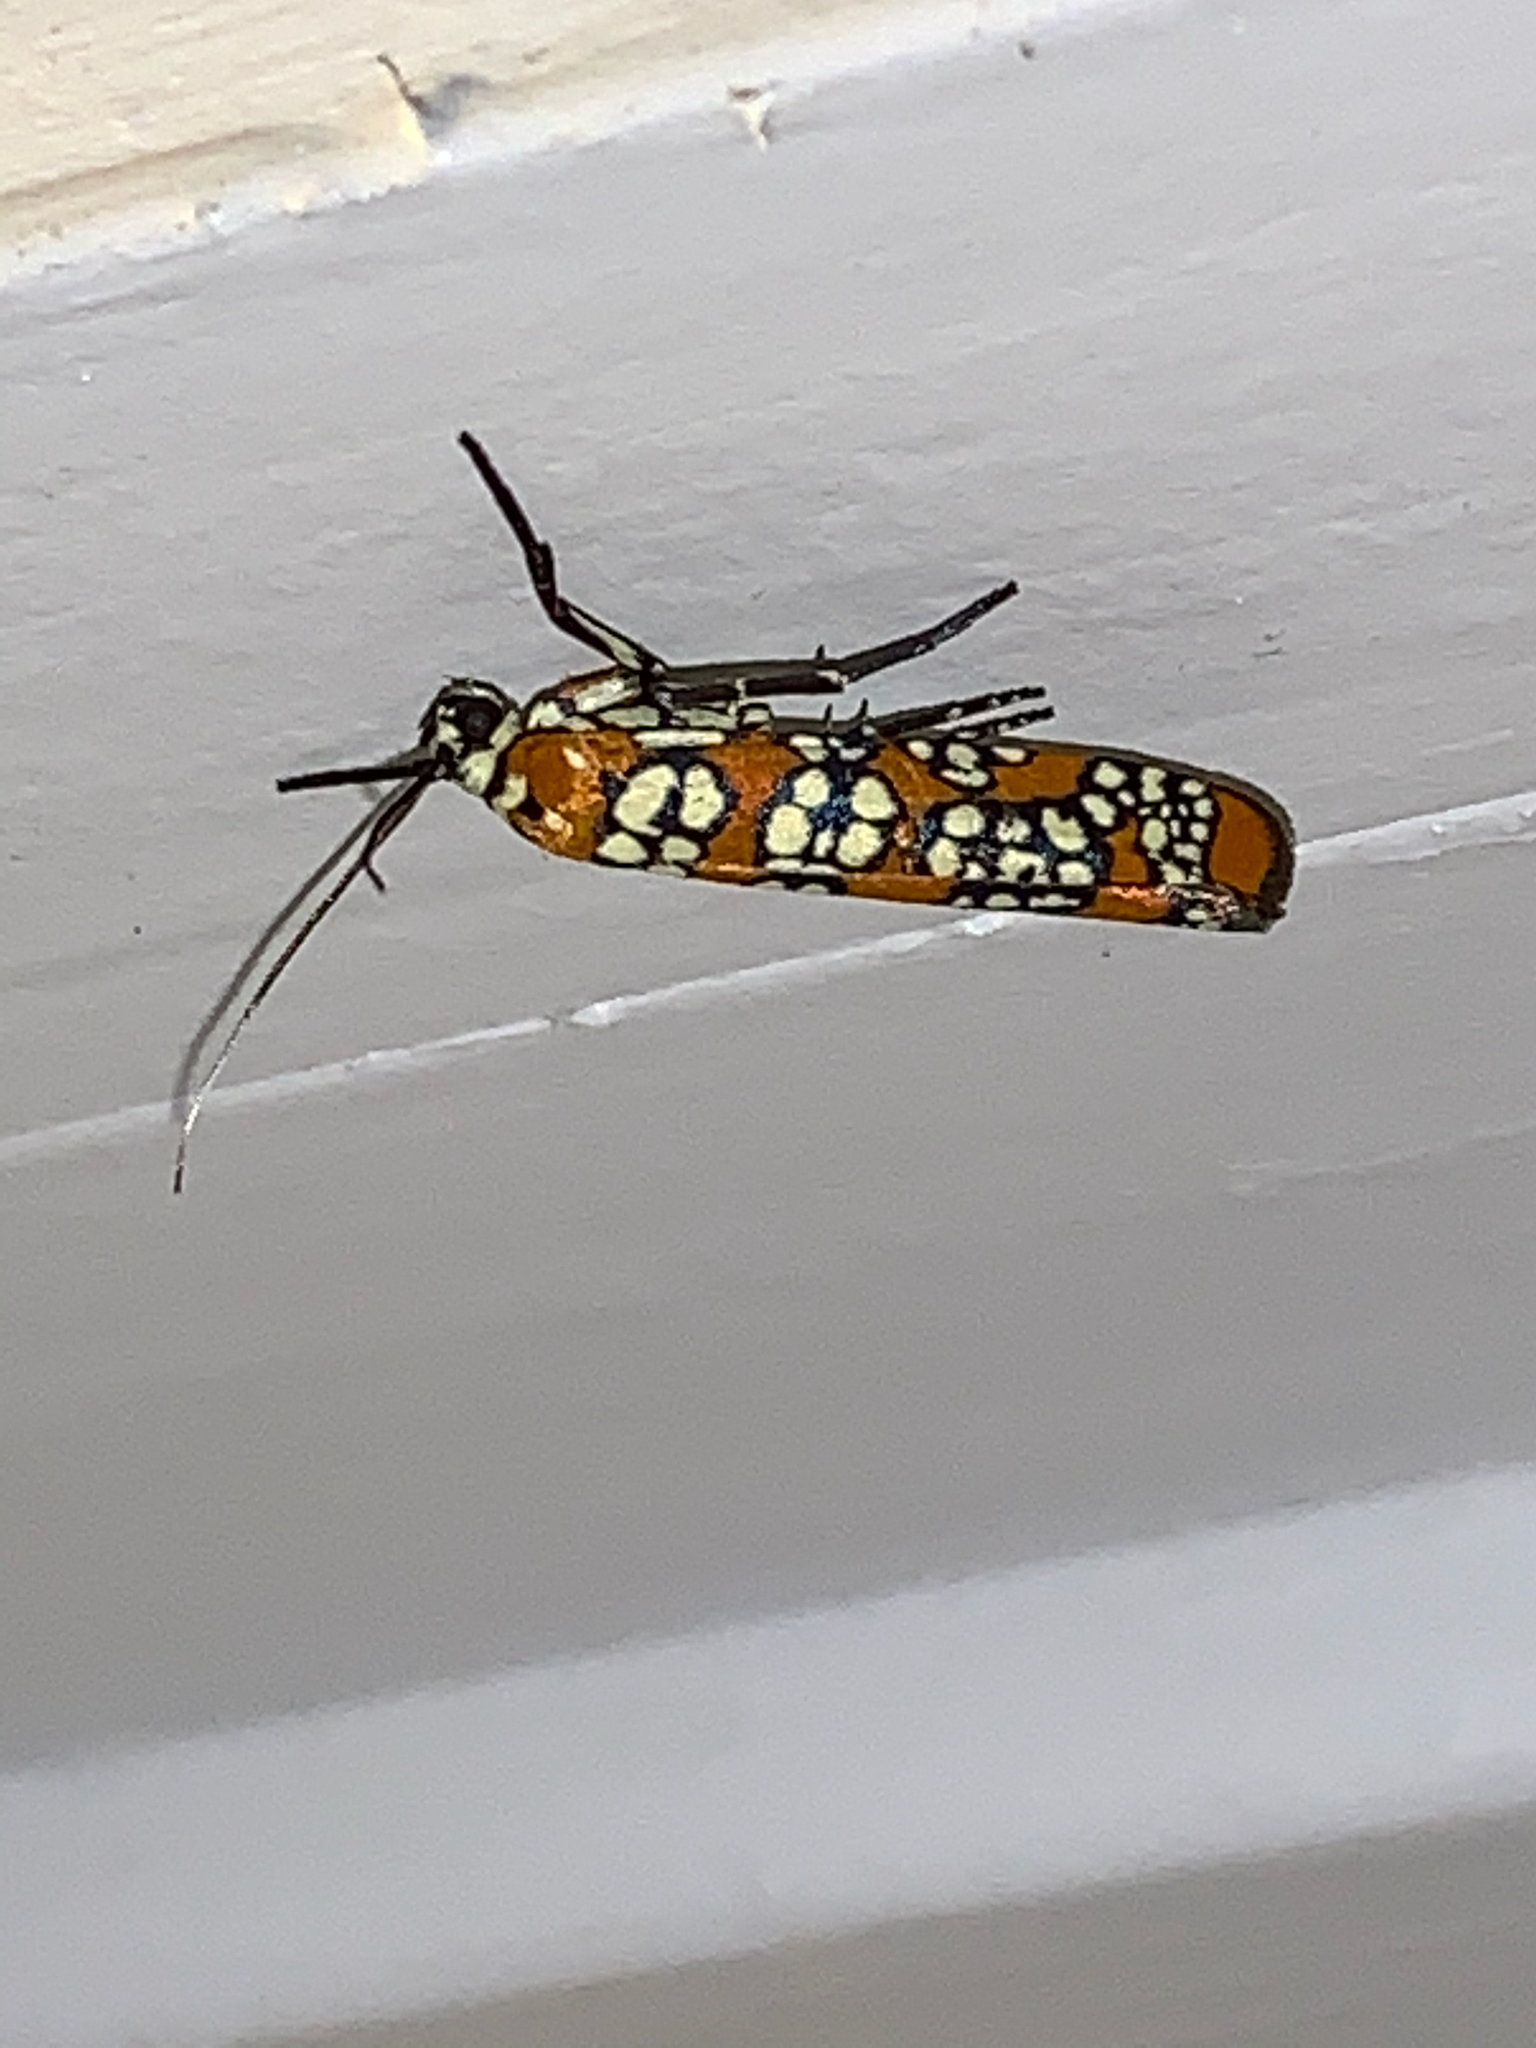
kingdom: Animalia
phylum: Arthropoda
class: Insecta
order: Lepidoptera
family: Attevidae
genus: Atteva
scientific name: Atteva punctella
